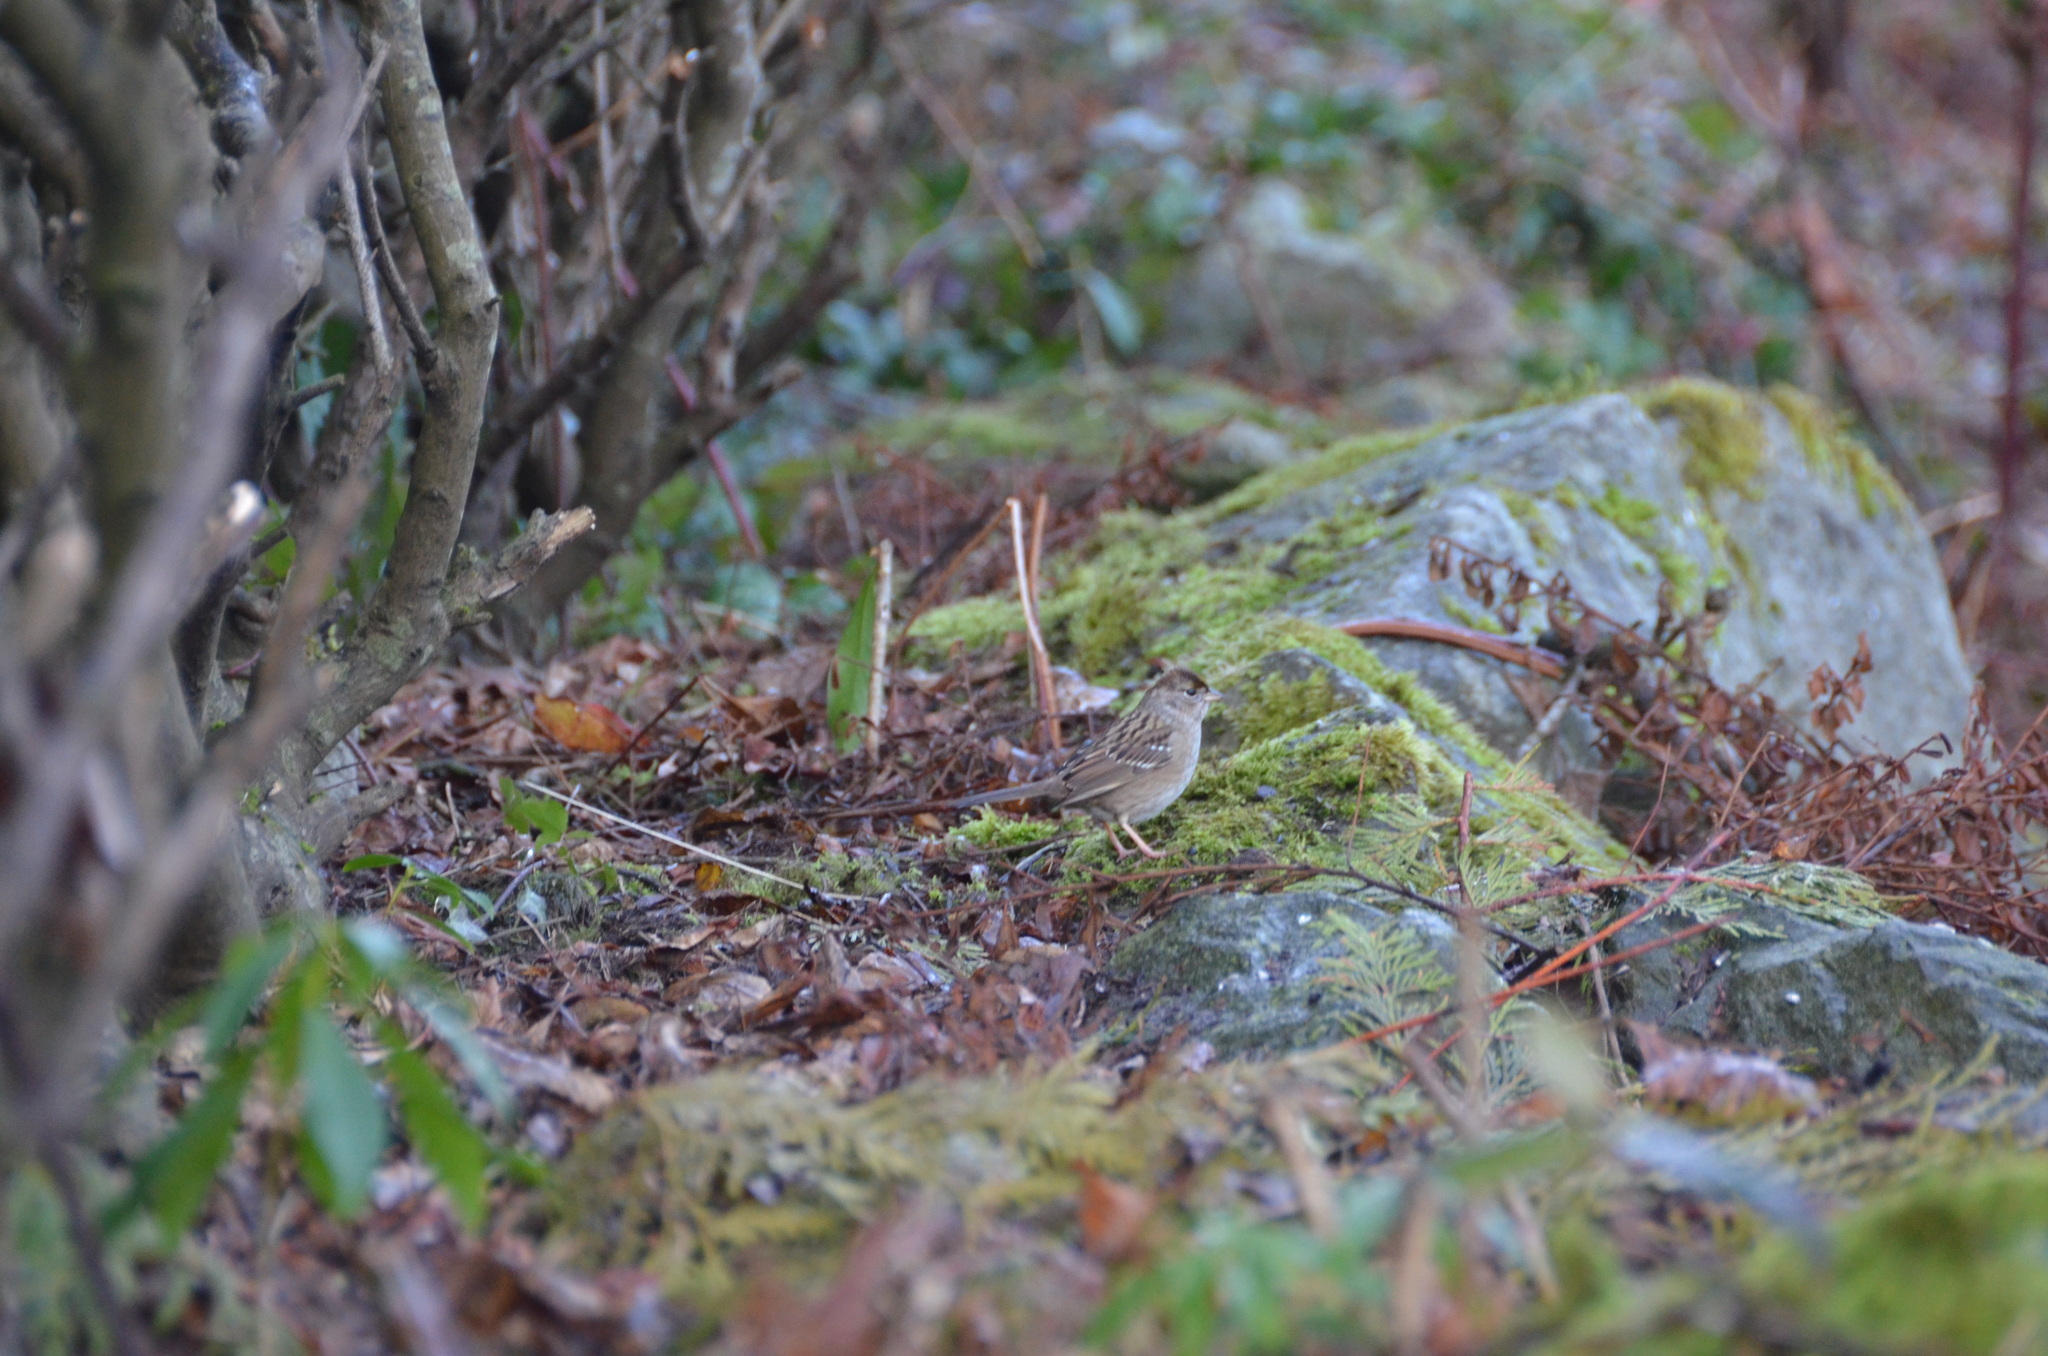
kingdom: Animalia
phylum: Chordata
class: Aves
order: Passeriformes
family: Passerellidae
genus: Zonotrichia
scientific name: Zonotrichia atricapilla
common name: Golden-crowned sparrow
